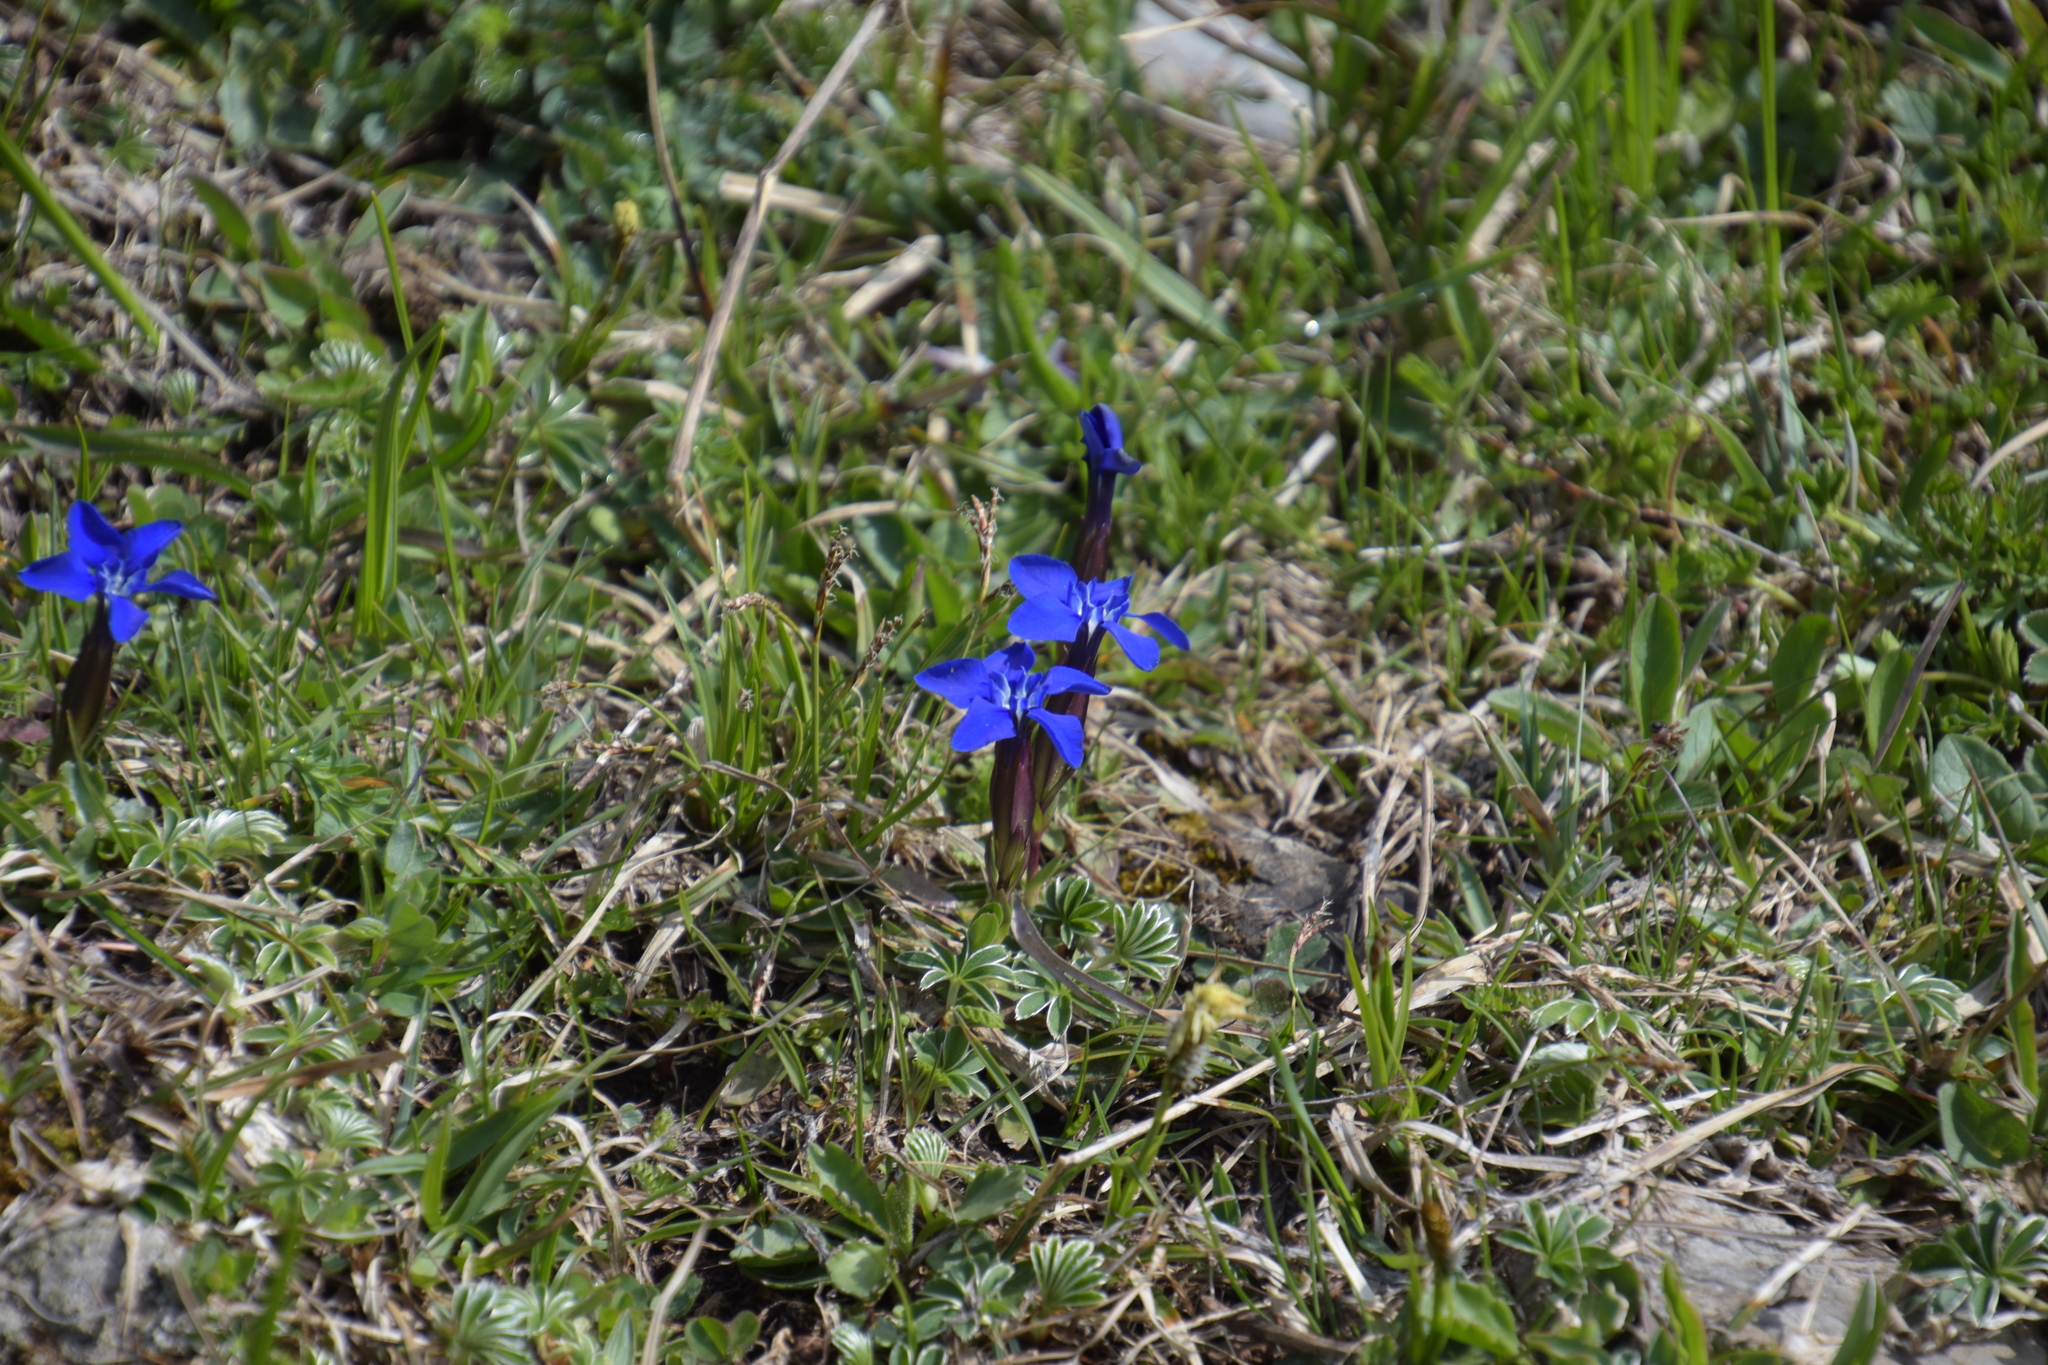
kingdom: Plantae
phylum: Tracheophyta
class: Magnoliopsida
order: Gentianales
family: Gentianaceae
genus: Gentiana
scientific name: Gentiana verna
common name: Spring gentian
